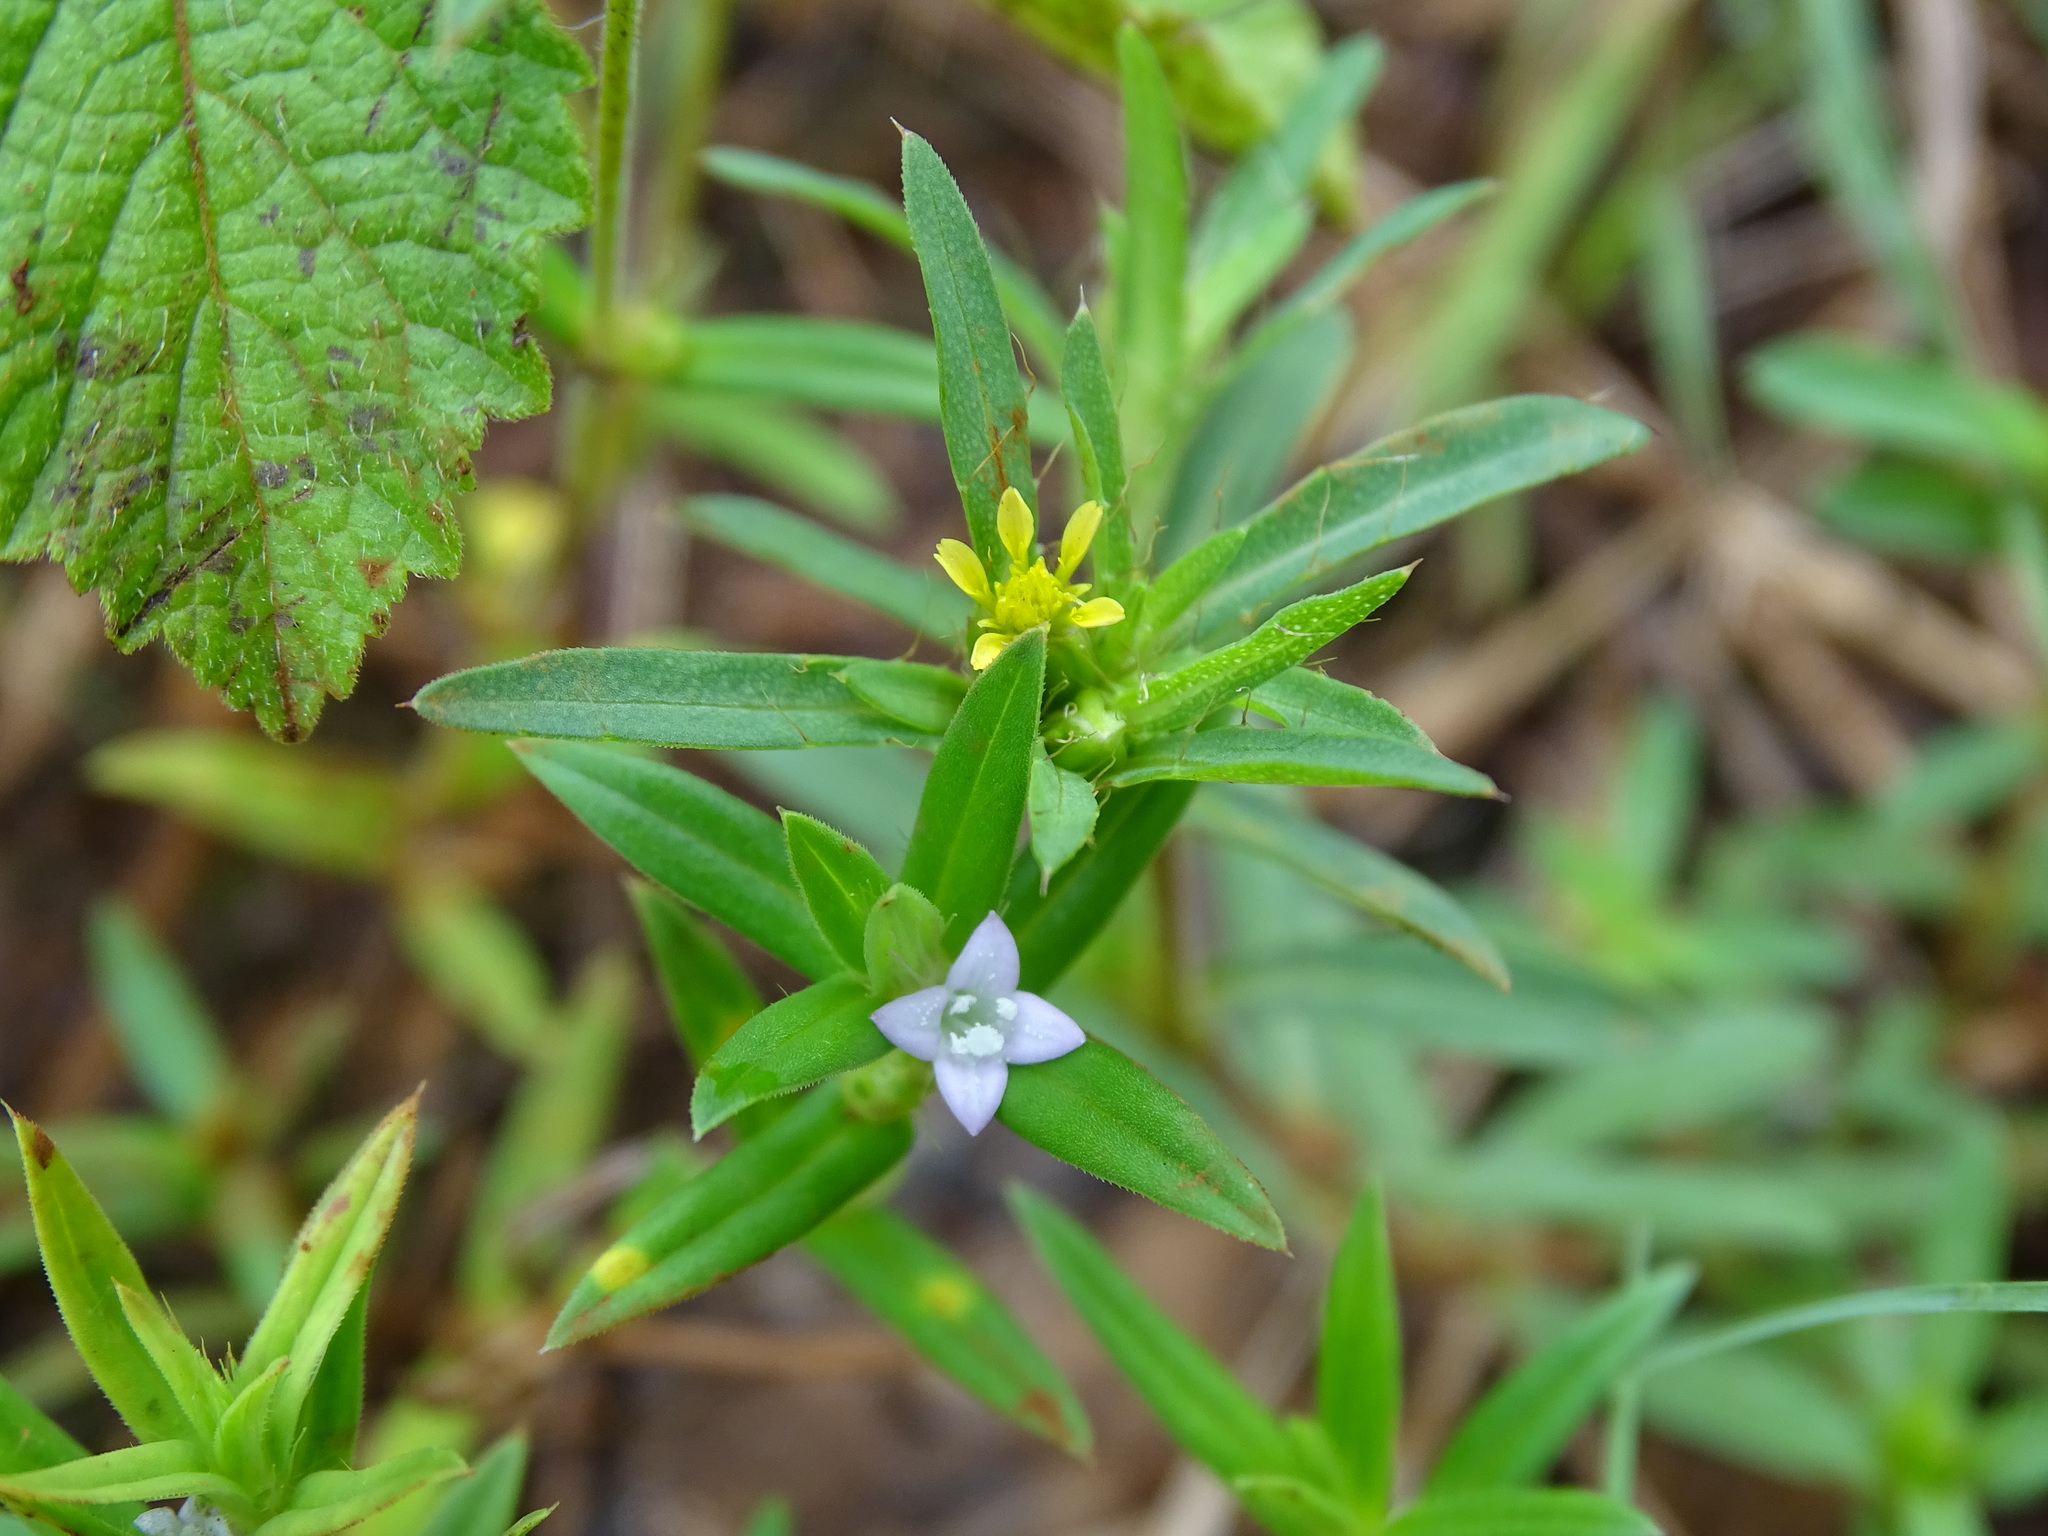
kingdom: Plantae
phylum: Tracheophyta
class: Magnoliopsida
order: Gentianales
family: Rubiaceae
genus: Hexasepalum
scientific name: Hexasepalum teres
